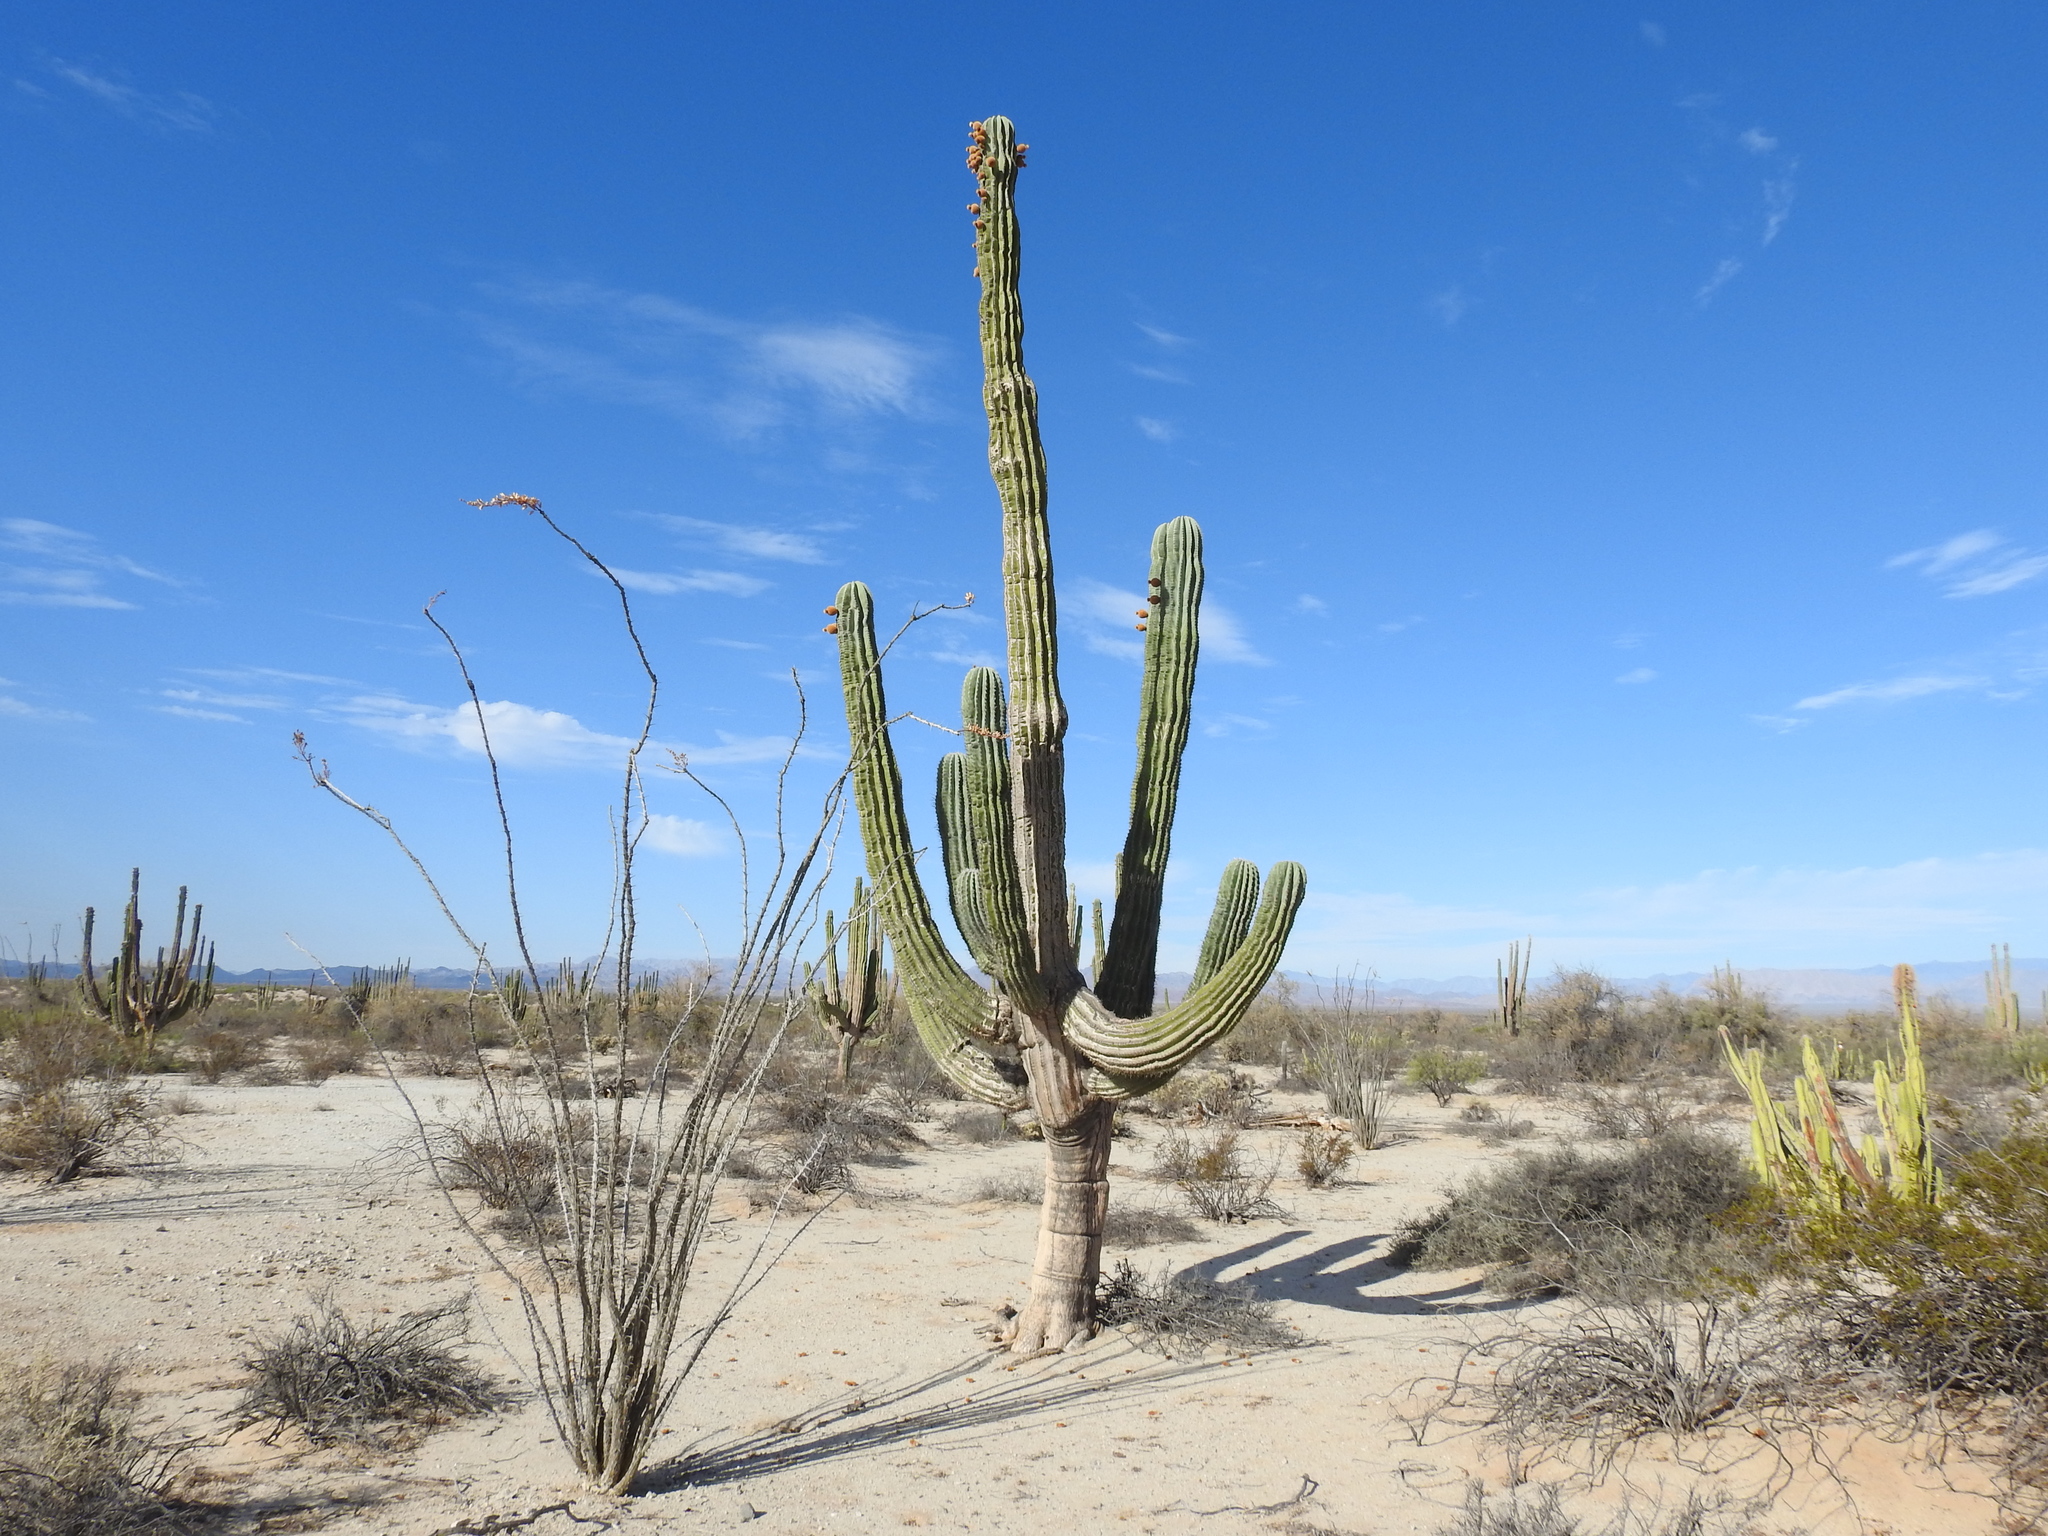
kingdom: Plantae
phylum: Tracheophyta
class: Magnoliopsida
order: Caryophyllales
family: Cactaceae
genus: Pachycereus
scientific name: Pachycereus pringlei
